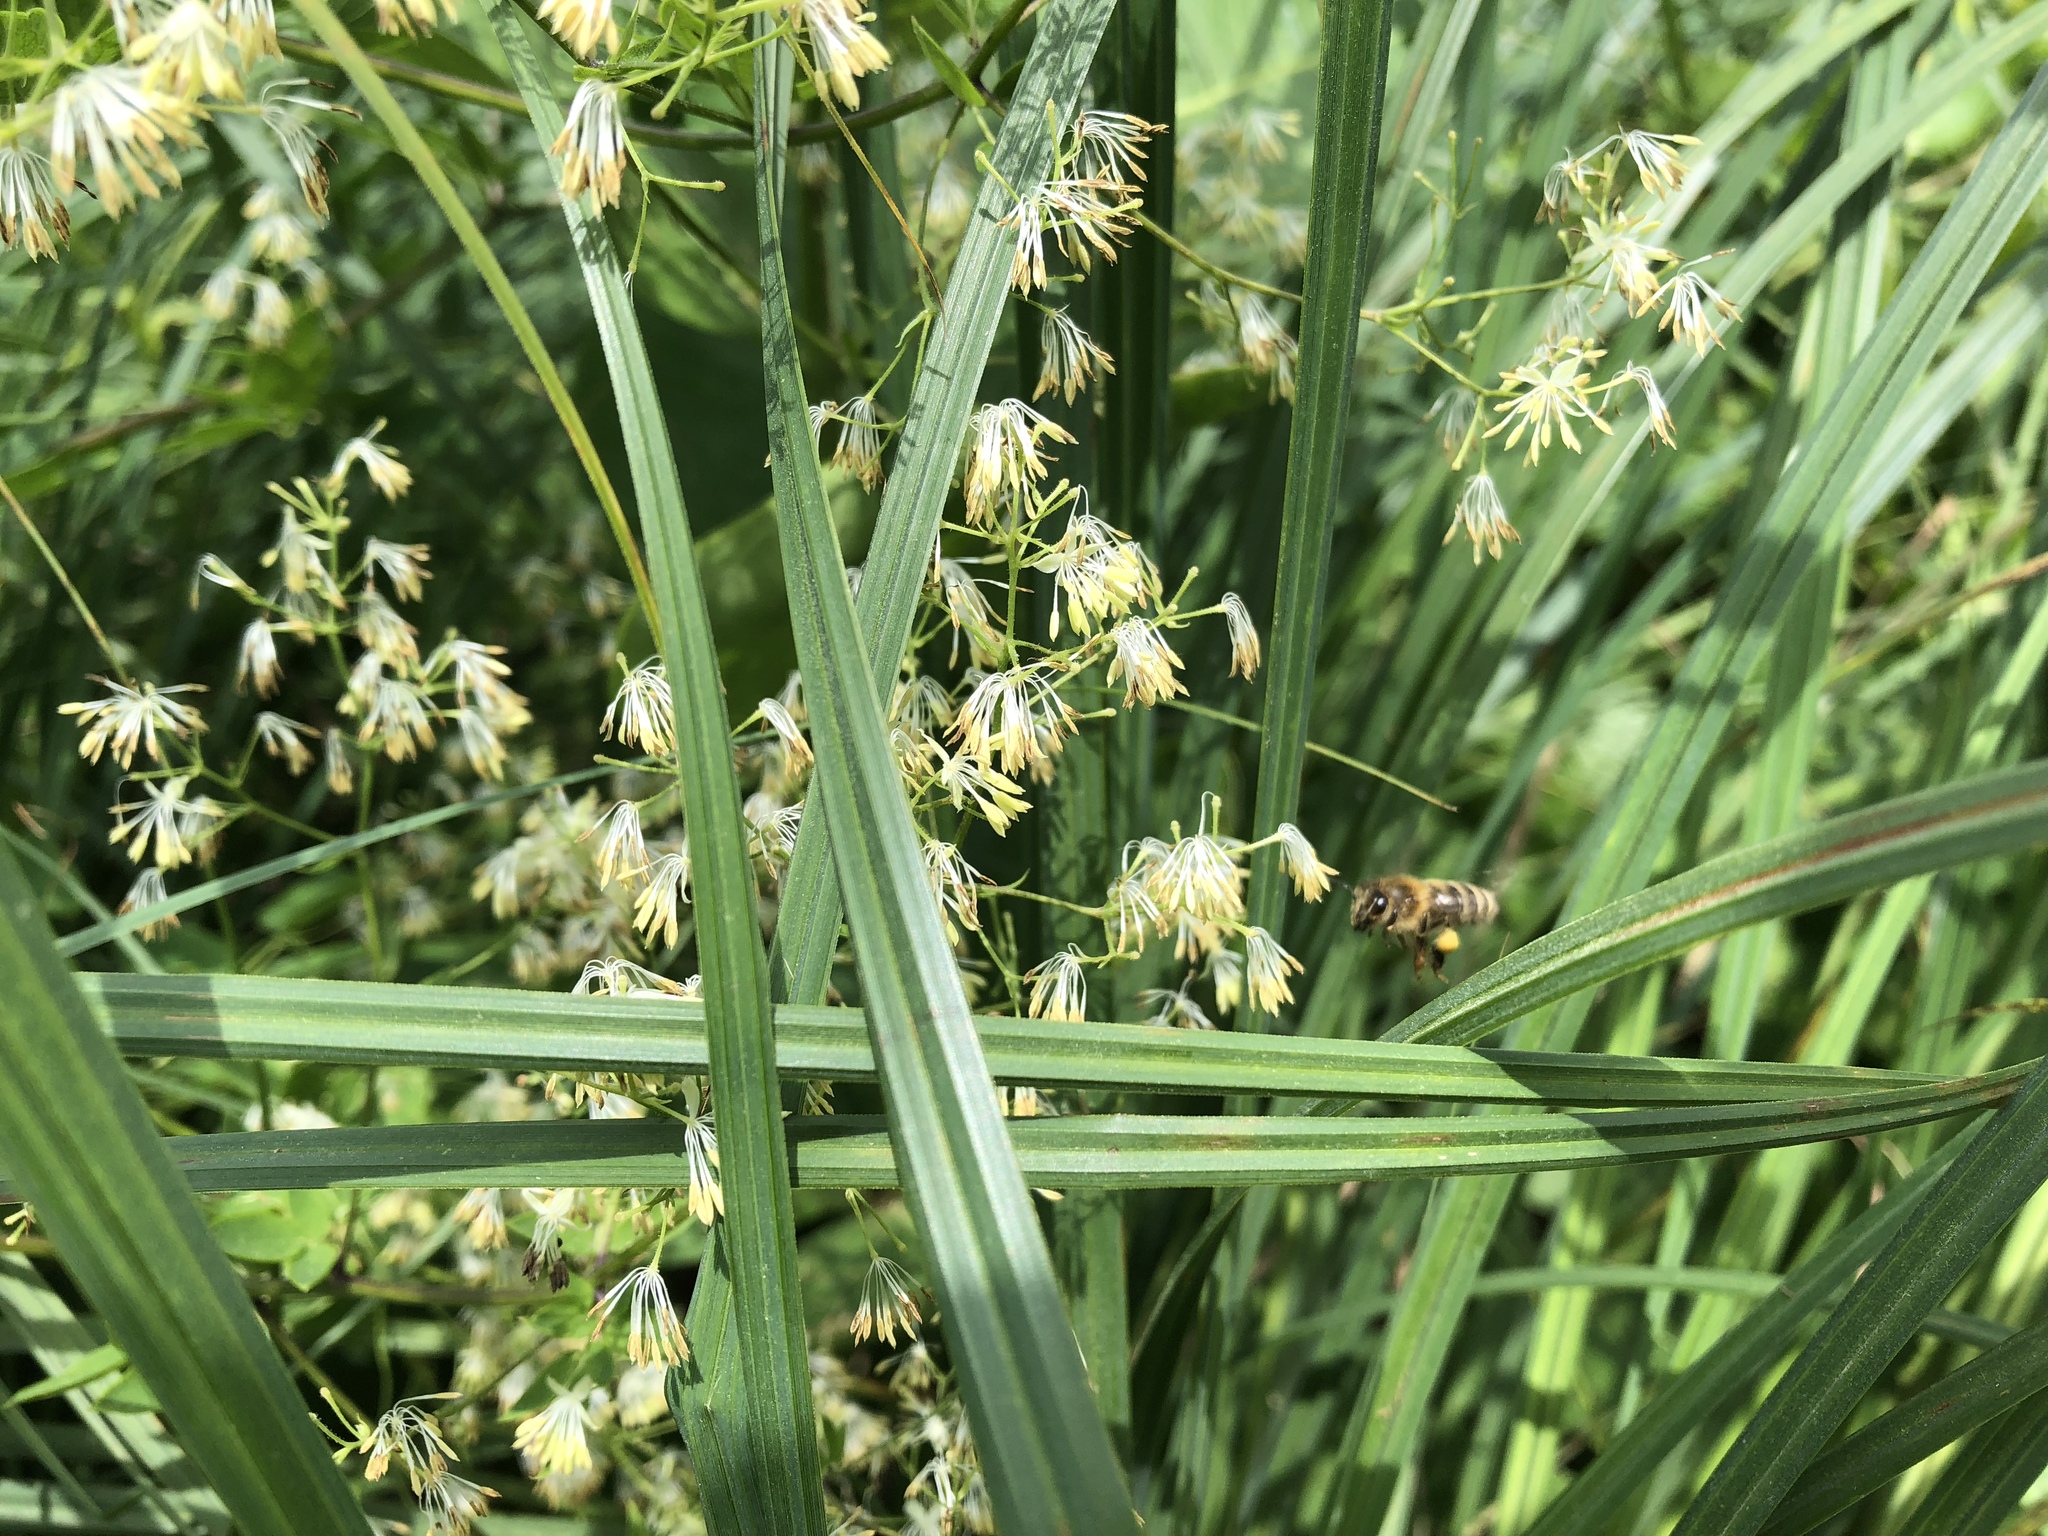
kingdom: Animalia
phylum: Arthropoda
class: Insecta
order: Hymenoptera
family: Apidae
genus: Apis
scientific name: Apis mellifera
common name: Honey bee
